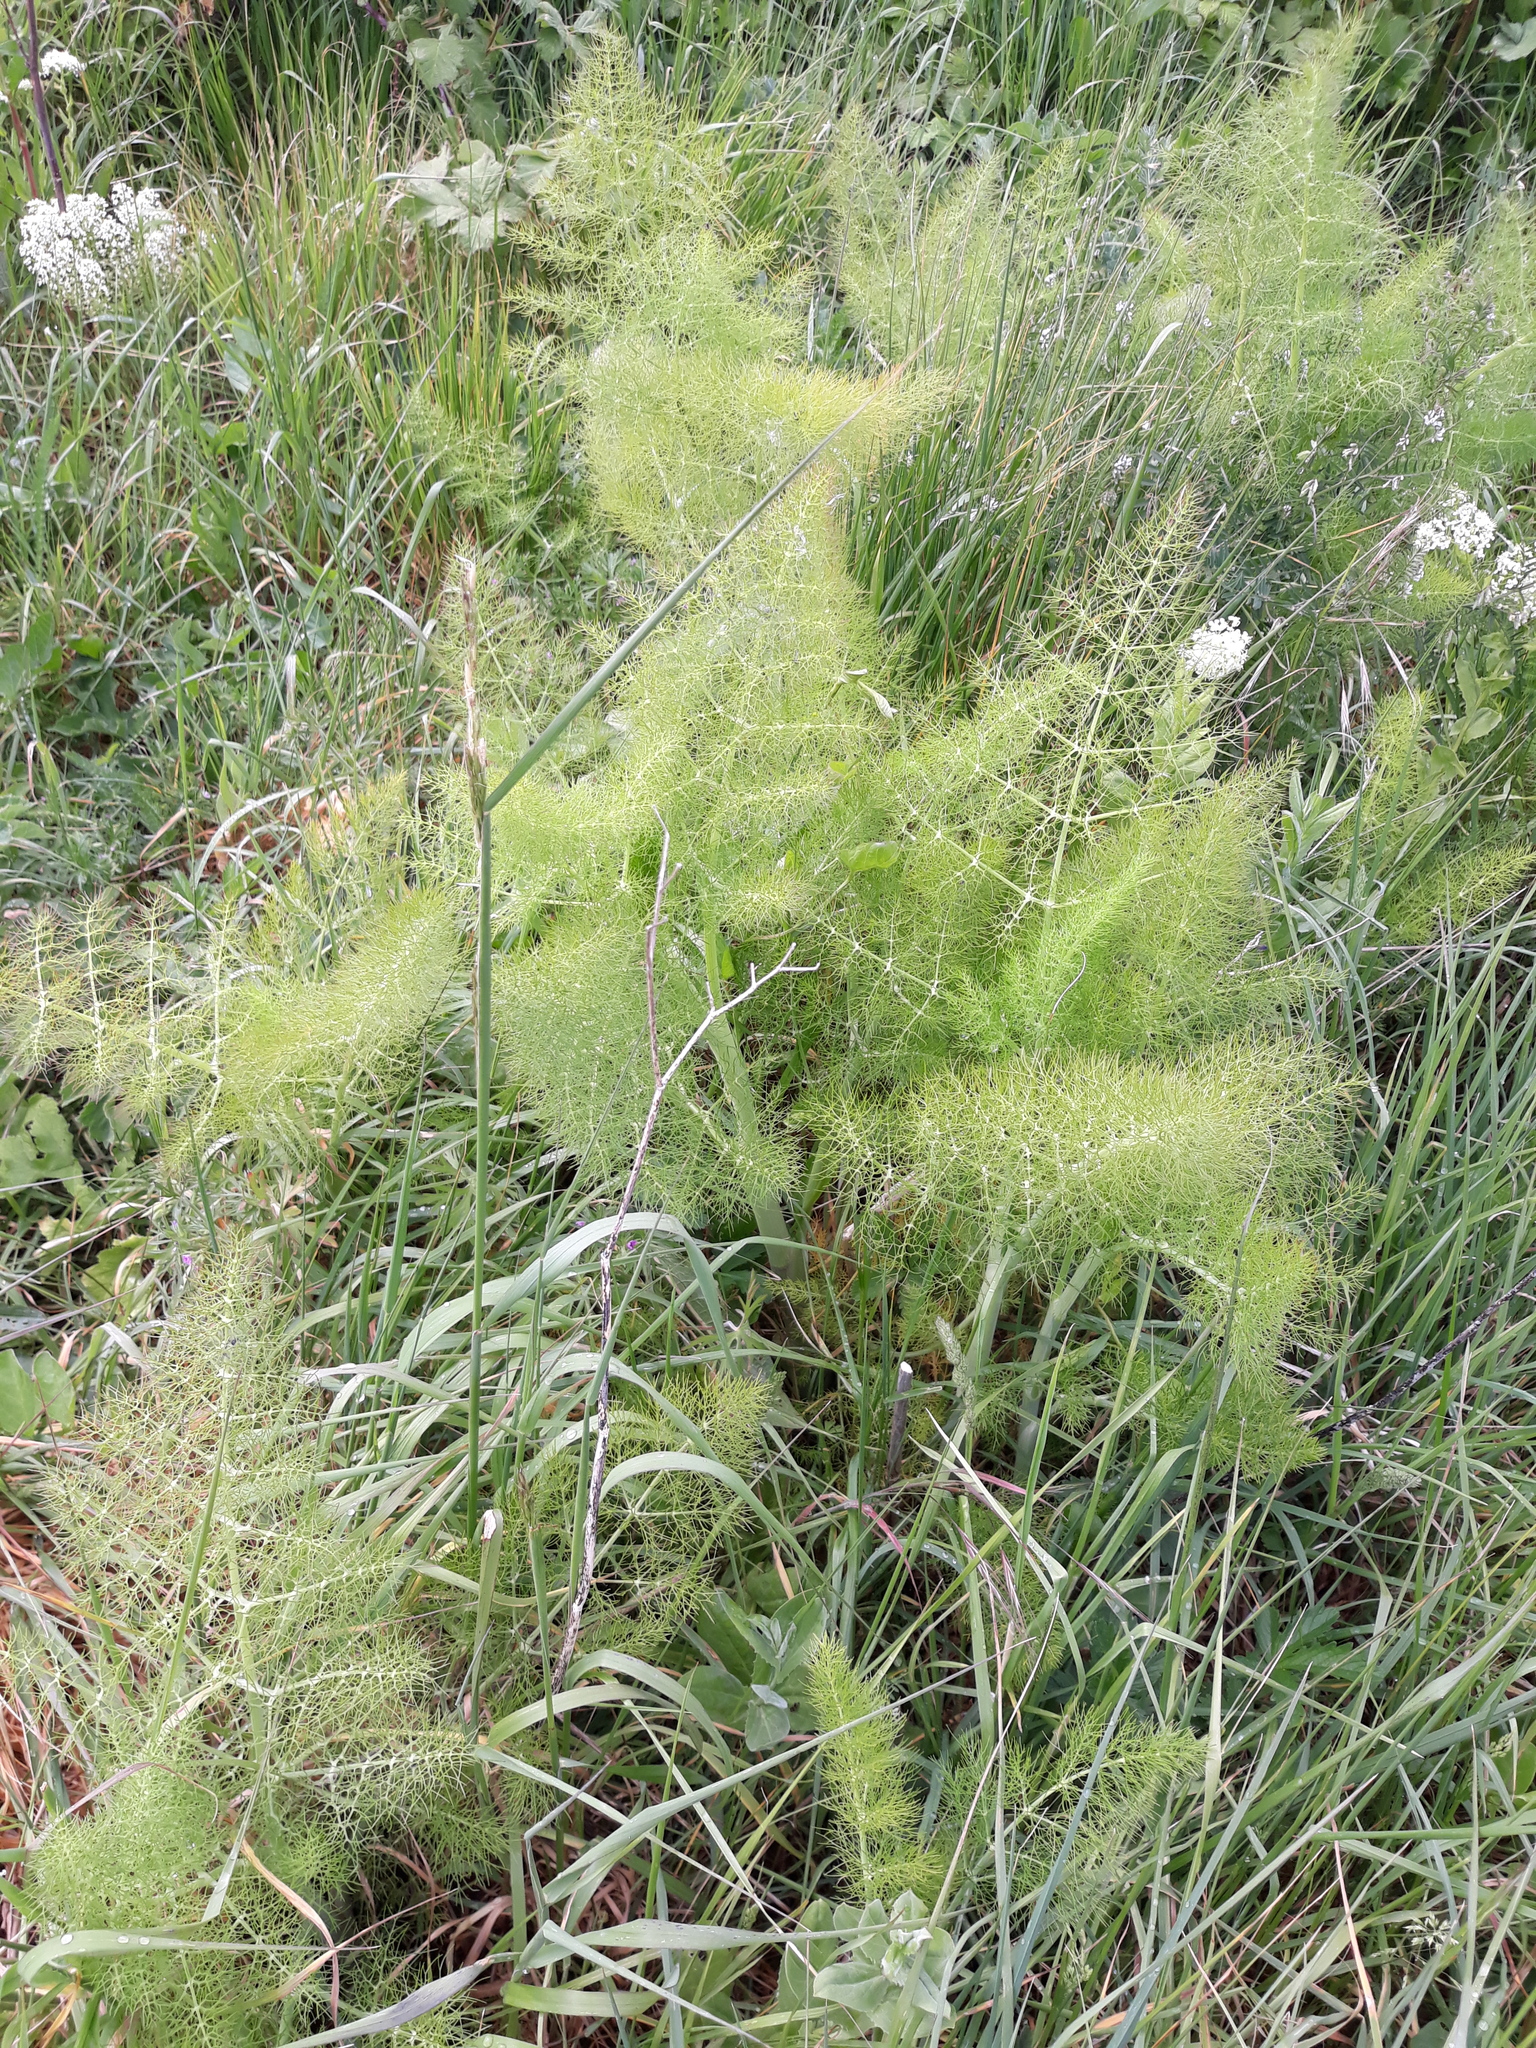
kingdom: Plantae
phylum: Tracheophyta
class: Magnoliopsida
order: Apiales
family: Apiaceae
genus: Foeniculum
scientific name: Foeniculum vulgare
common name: Fennel
